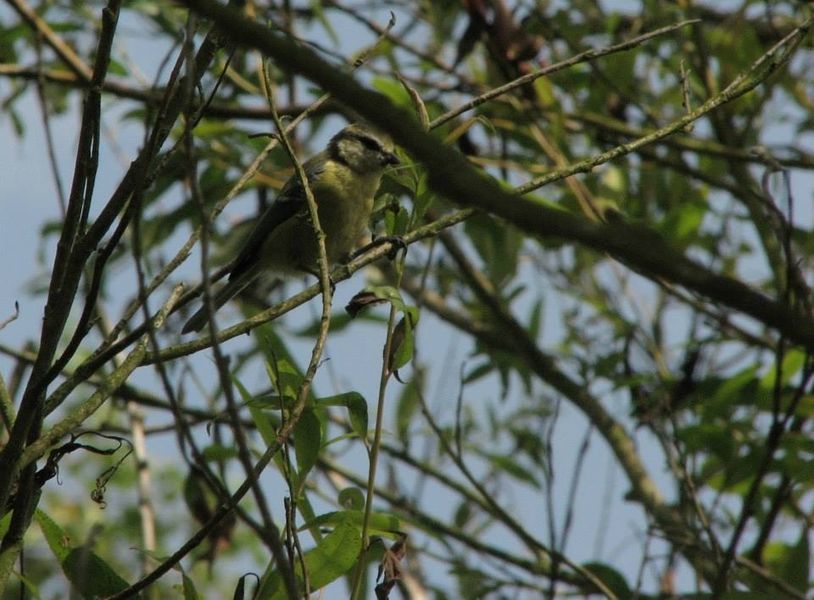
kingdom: Animalia
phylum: Chordata
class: Aves
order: Passeriformes
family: Paridae
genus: Cyanistes
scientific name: Cyanistes caeruleus
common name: Eurasian blue tit
